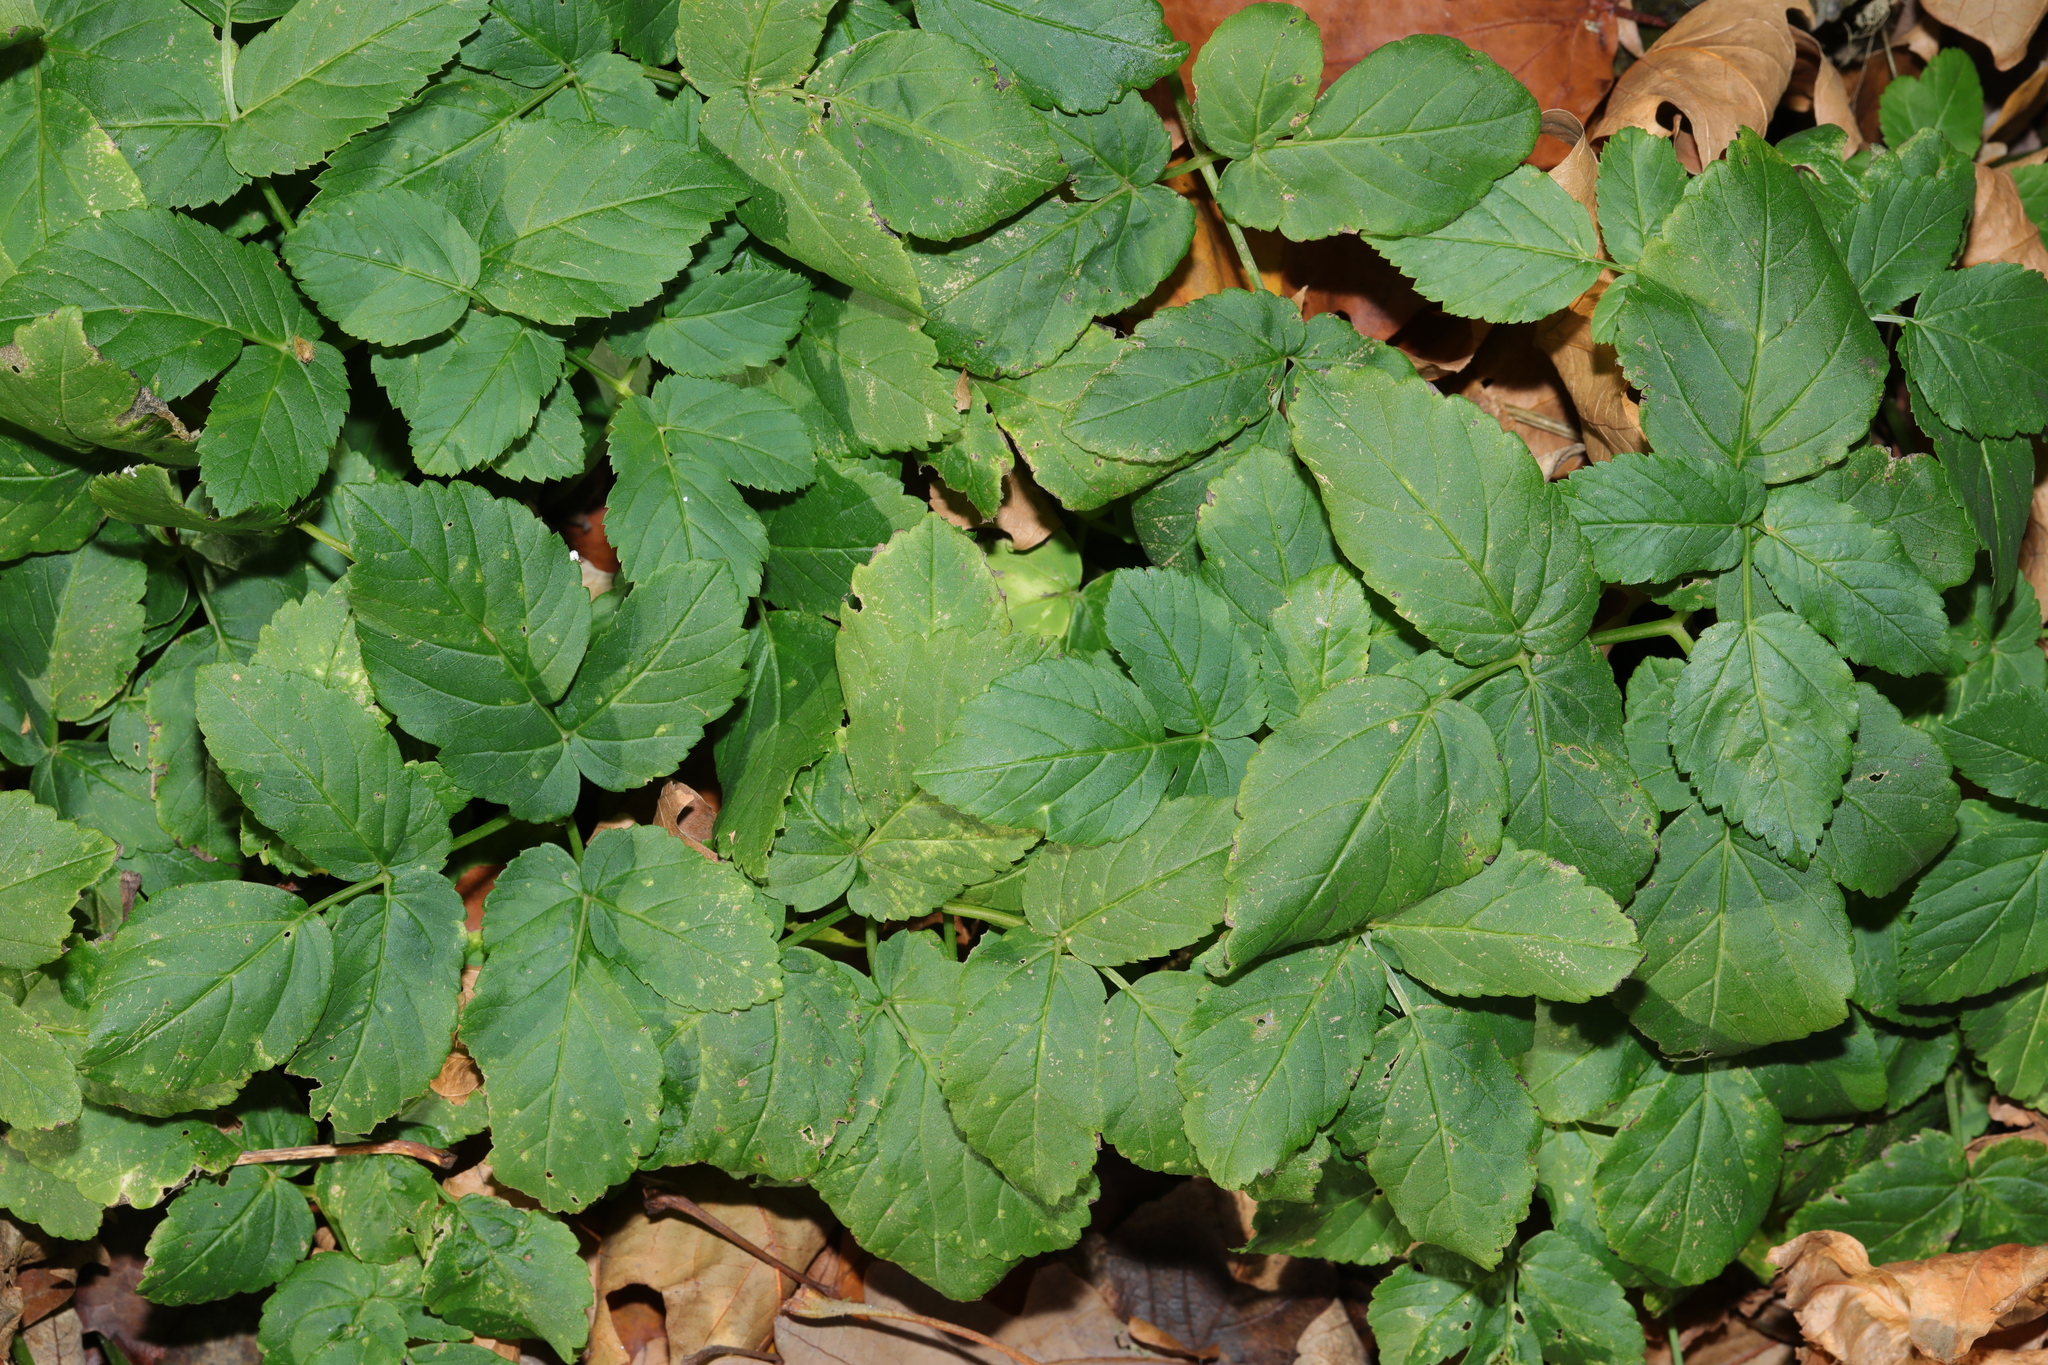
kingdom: Plantae
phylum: Tracheophyta
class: Magnoliopsida
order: Apiales
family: Apiaceae
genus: Aegopodium
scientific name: Aegopodium podagraria
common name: Ground-elder
